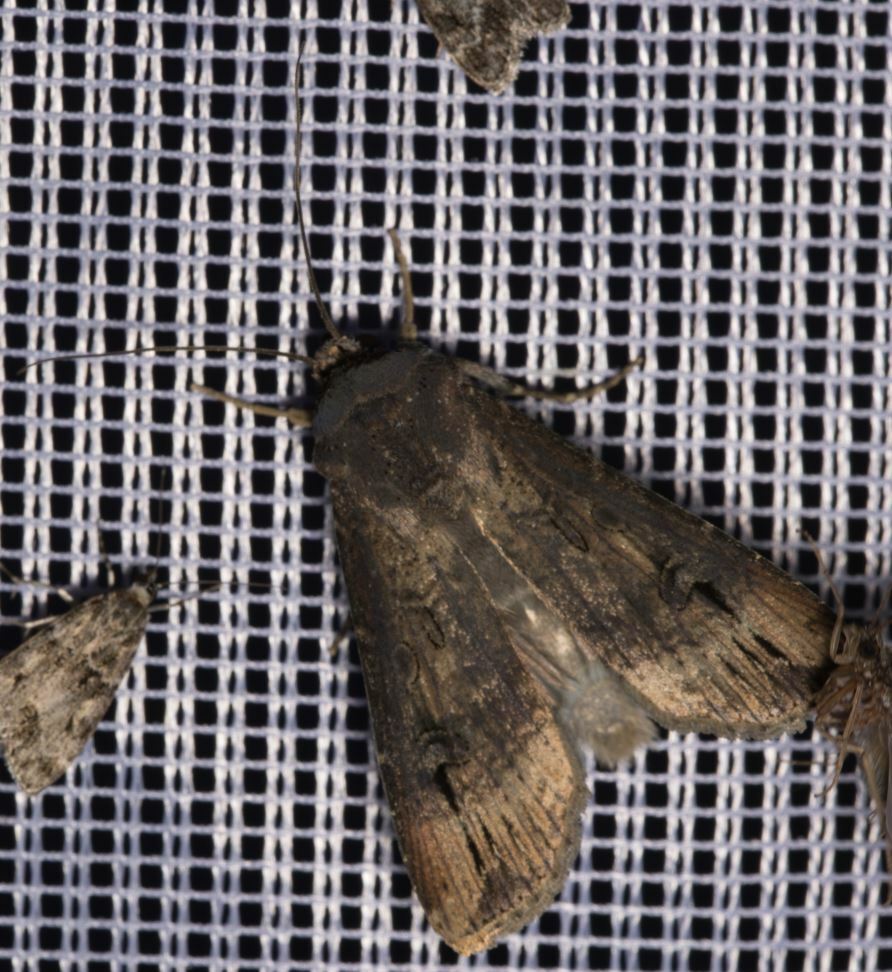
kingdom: Animalia
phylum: Arthropoda
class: Insecta
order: Lepidoptera
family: Noctuidae
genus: Agrotis
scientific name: Agrotis ipsilon
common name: Dark sword-grass
